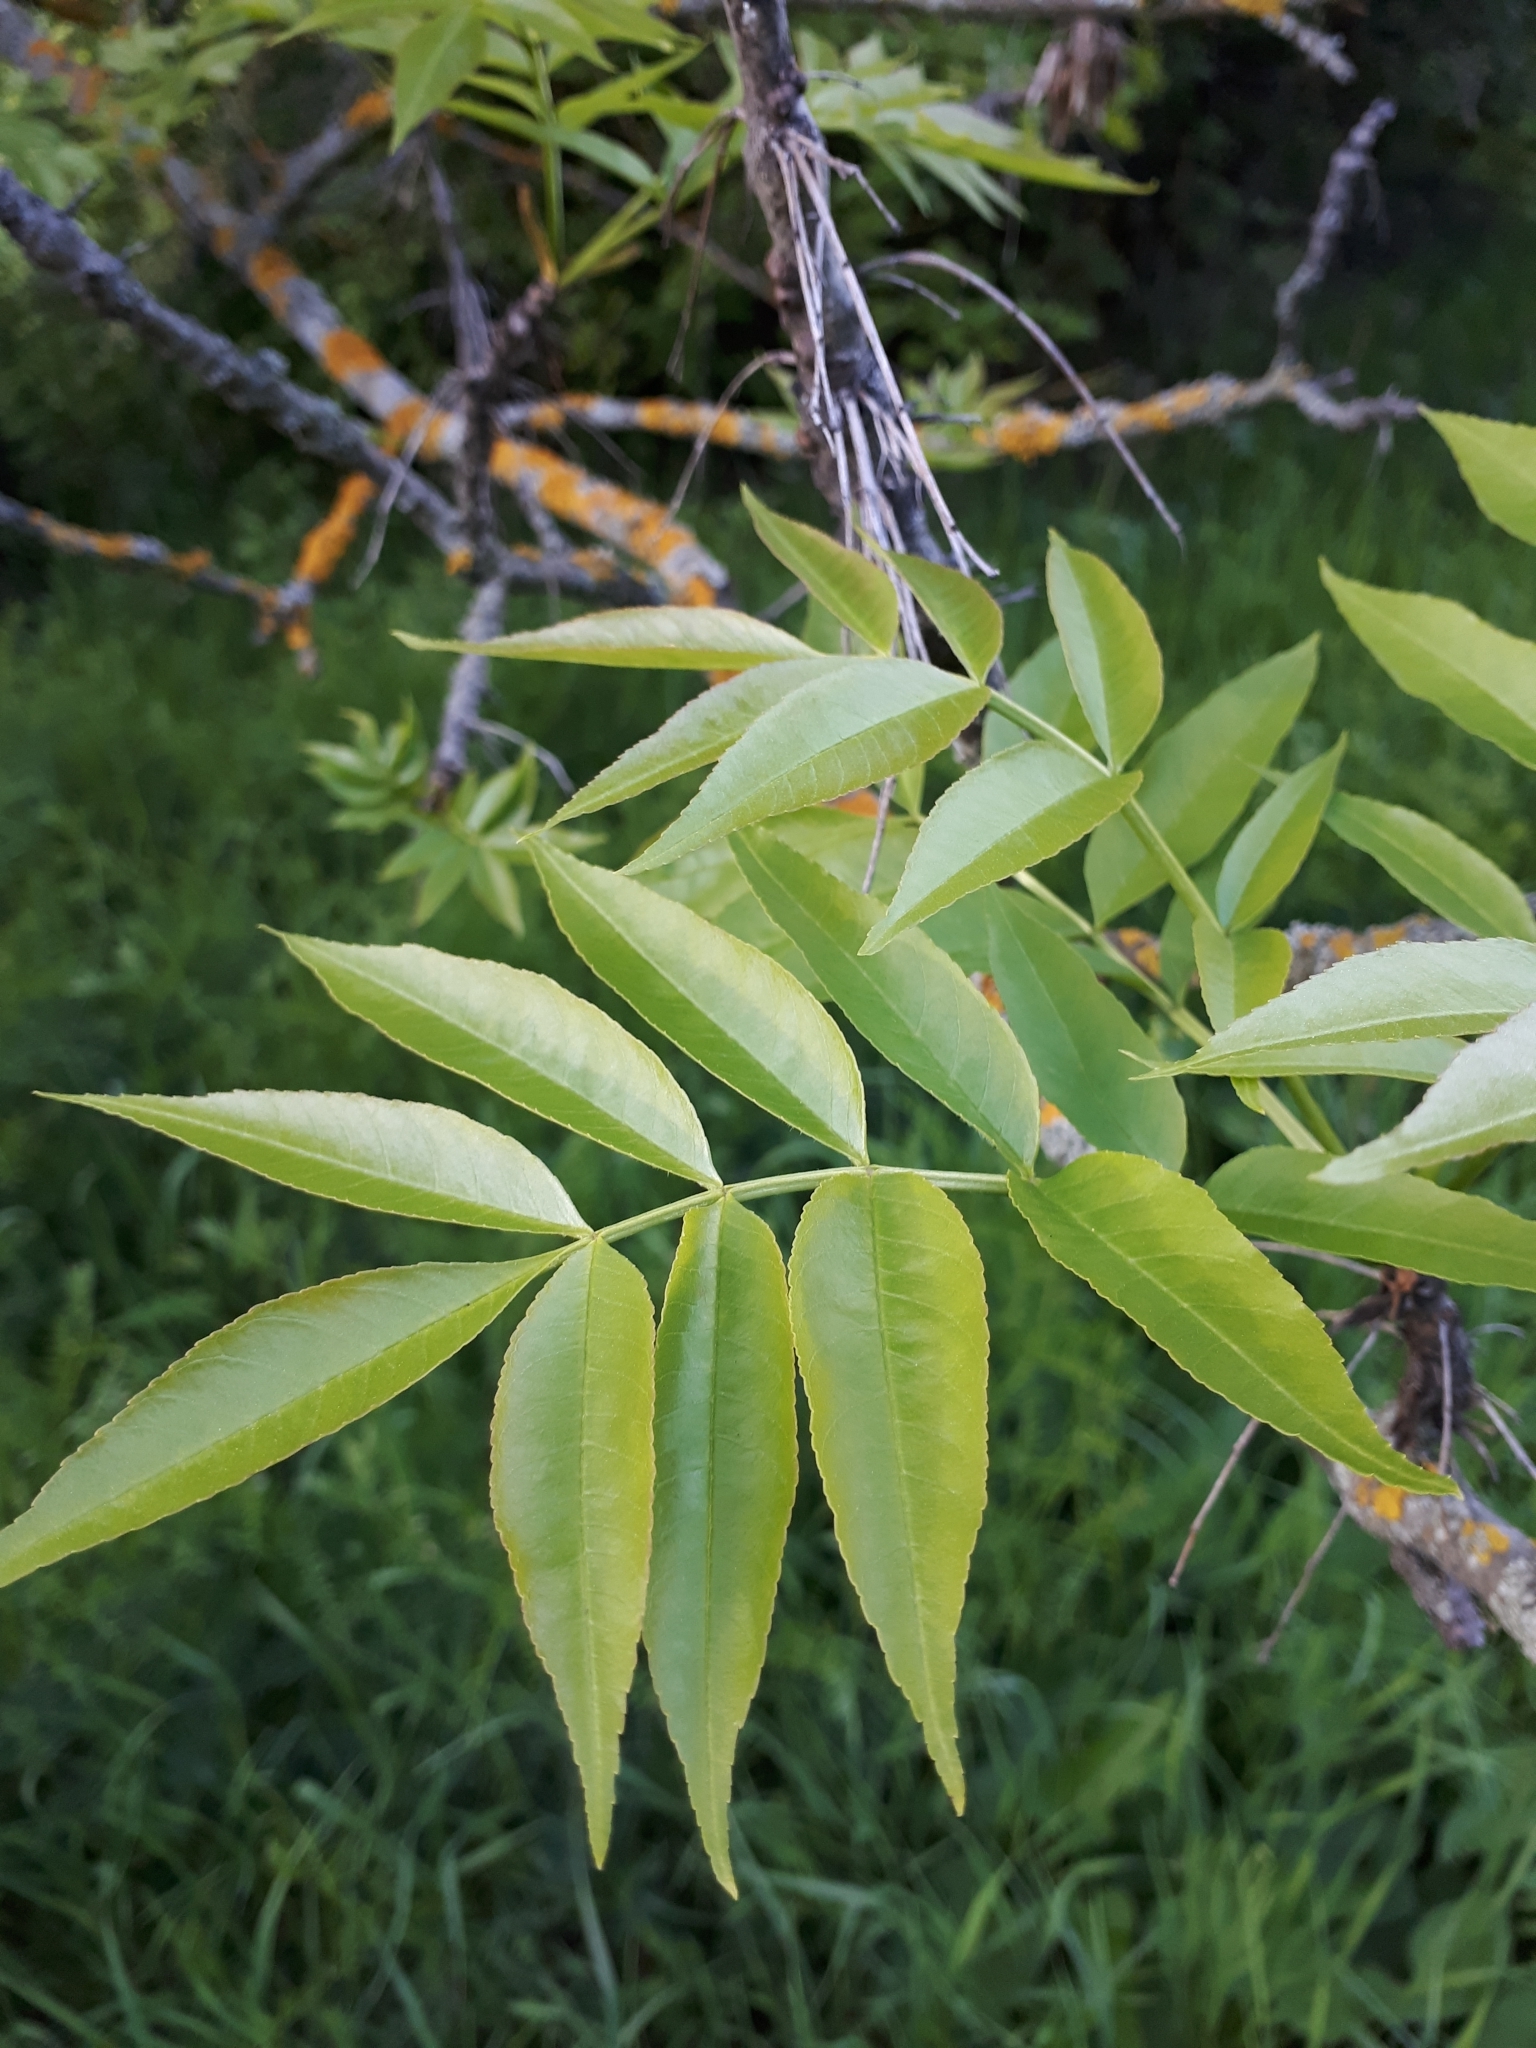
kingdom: Plantae
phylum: Tracheophyta
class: Magnoliopsida
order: Lamiales
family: Oleaceae
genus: Fraxinus
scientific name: Fraxinus excelsior
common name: European ash
